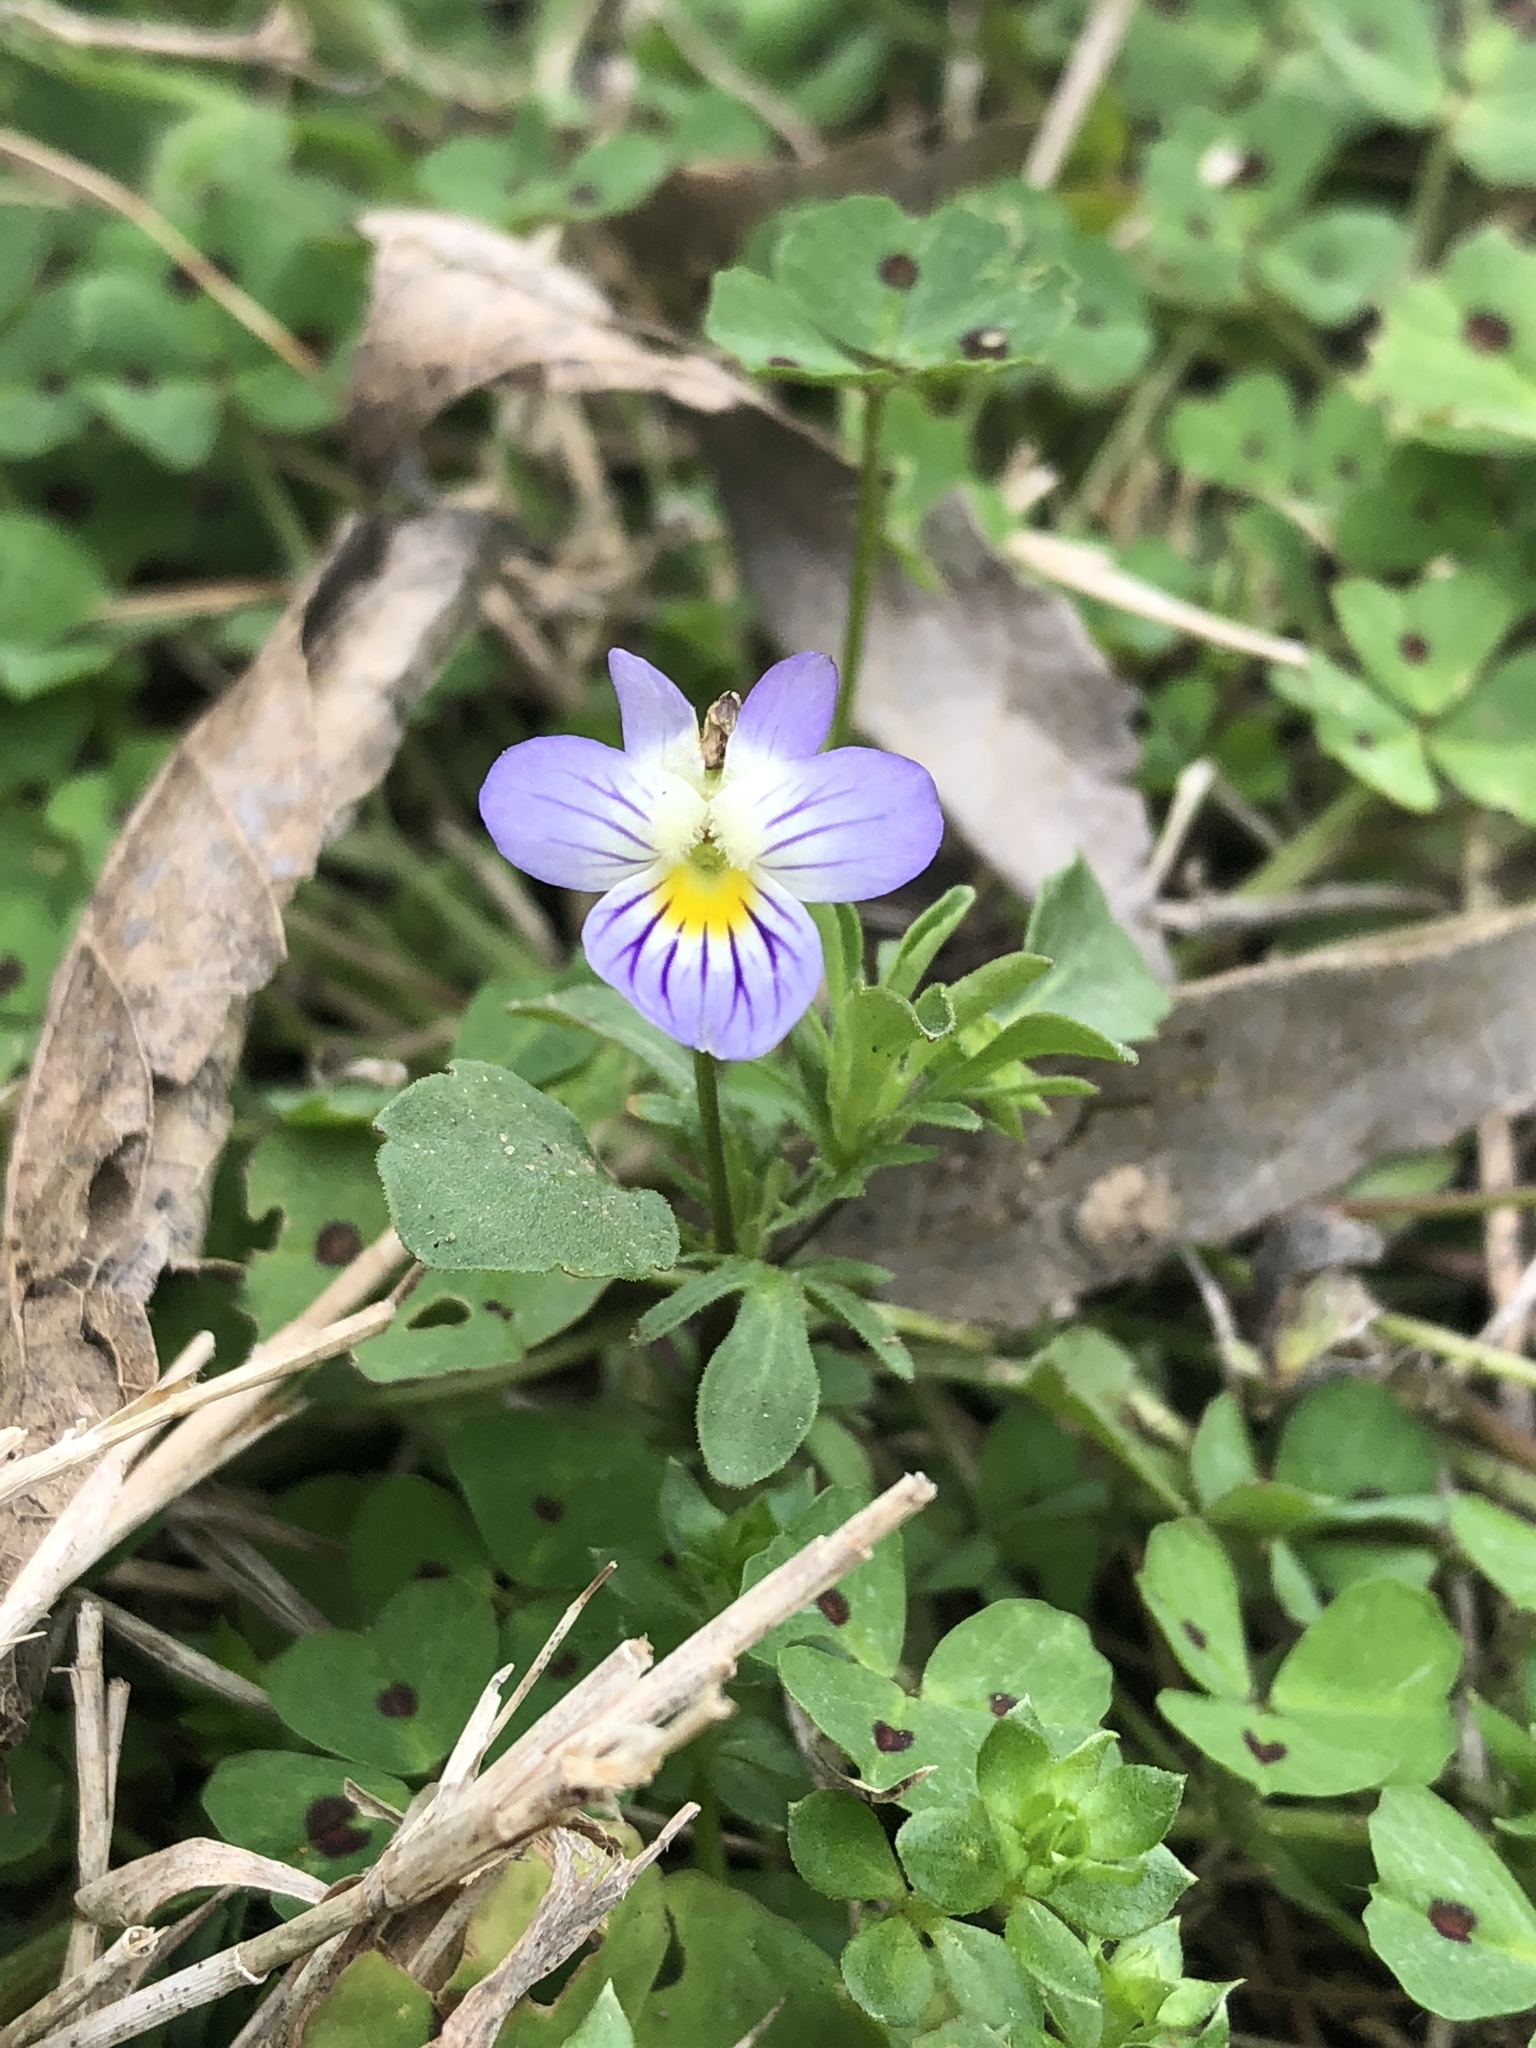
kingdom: Plantae
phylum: Tracheophyta
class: Magnoliopsida
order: Malpighiales
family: Violaceae
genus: Viola
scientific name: Viola rafinesquei
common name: American field pansy
